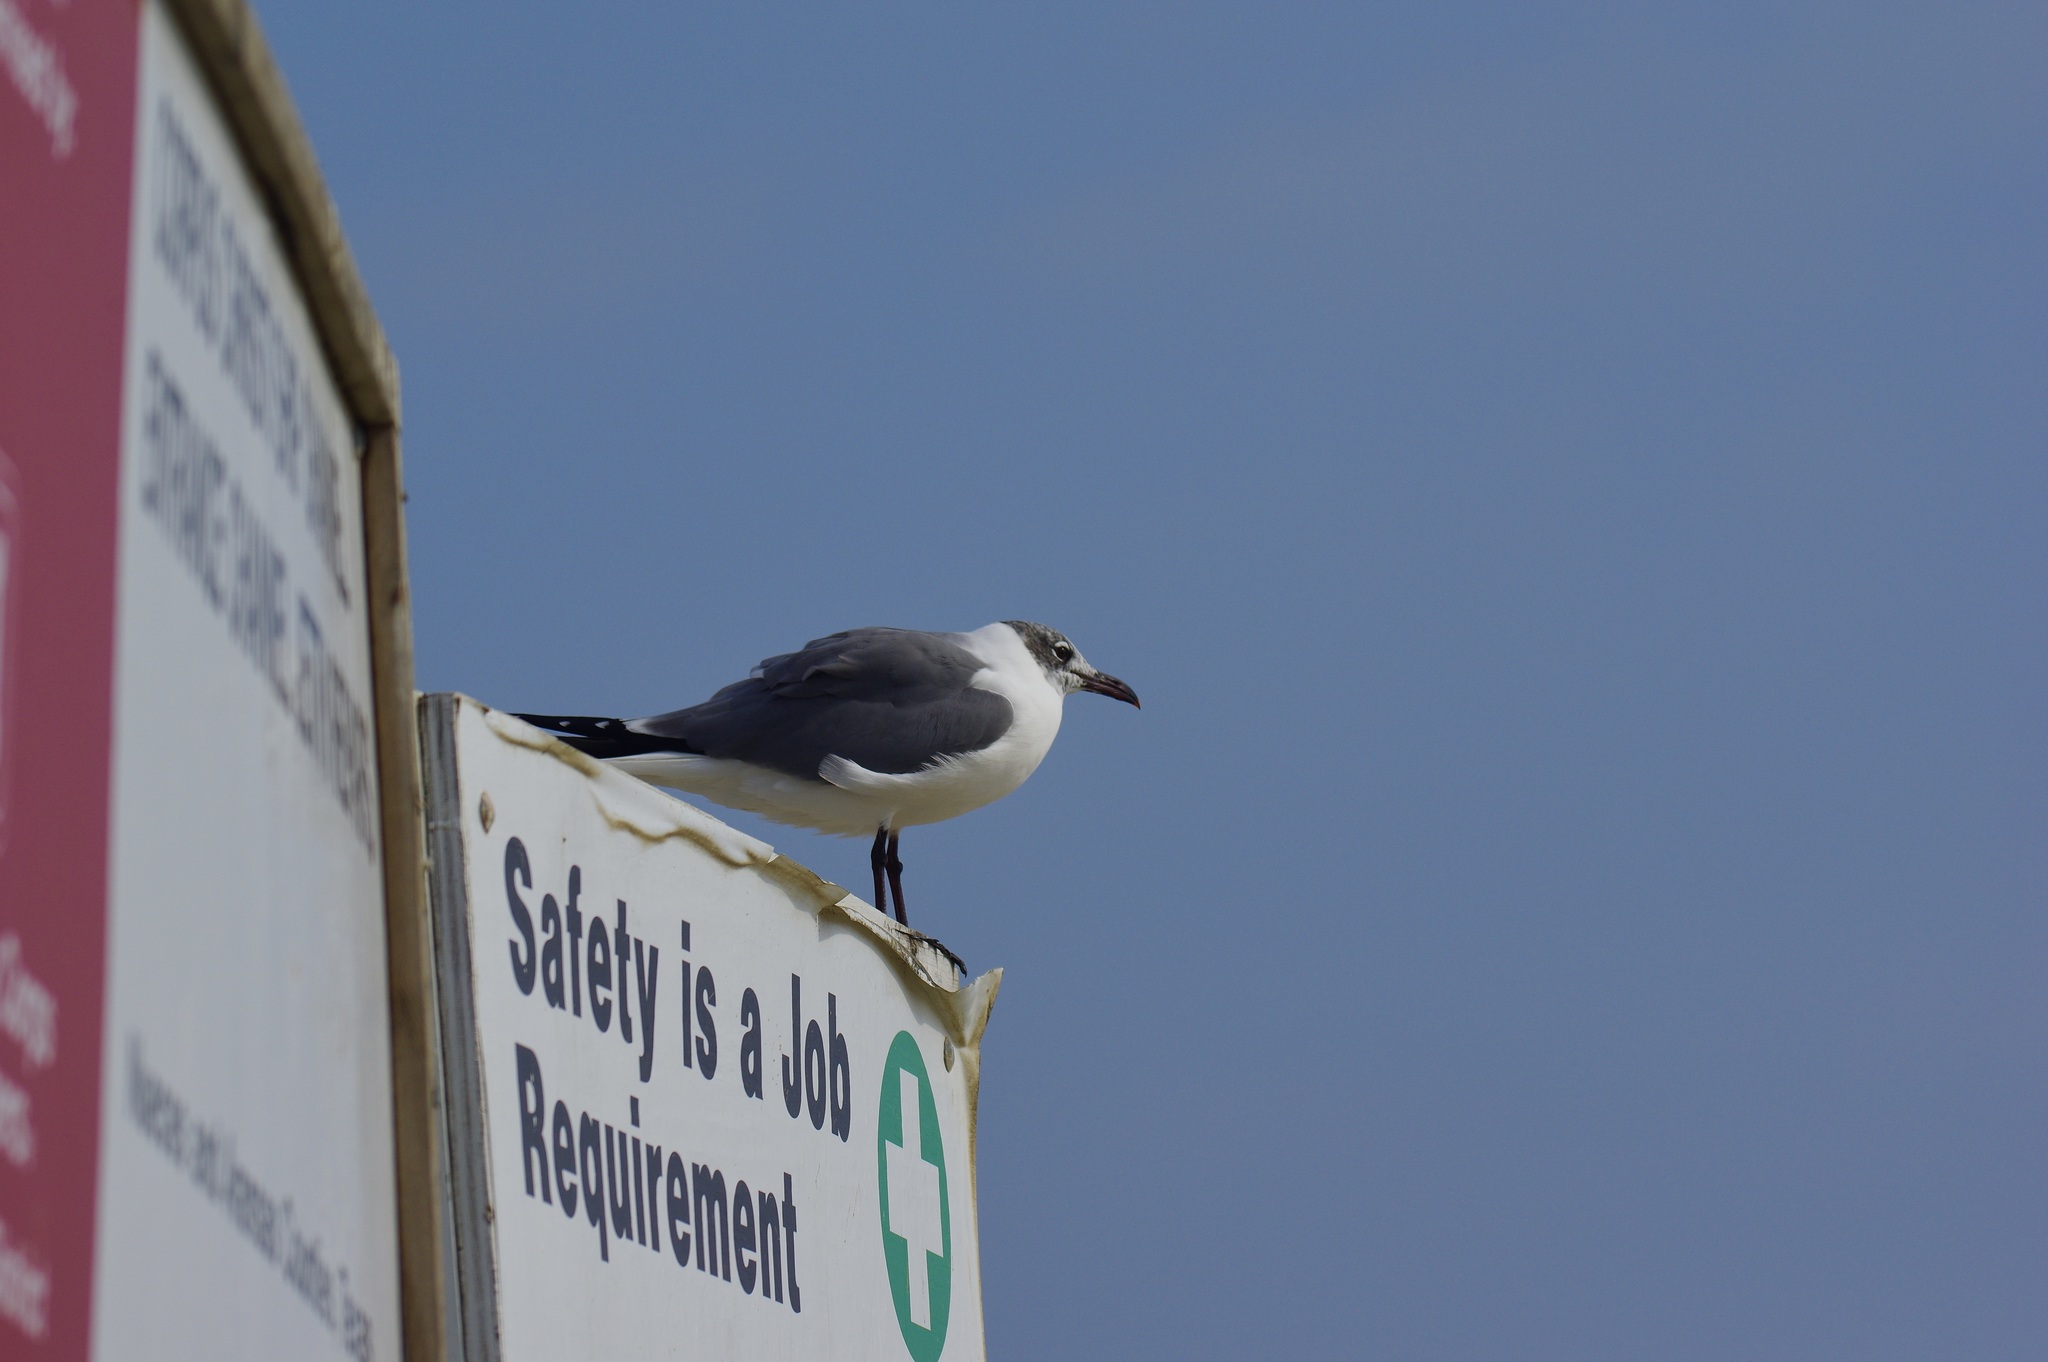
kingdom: Animalia
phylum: Chordata
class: Aves
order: Charadriiformes
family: Laridae
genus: Leucophaeus
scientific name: Leucophaeus atricilla
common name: Laughing gull
